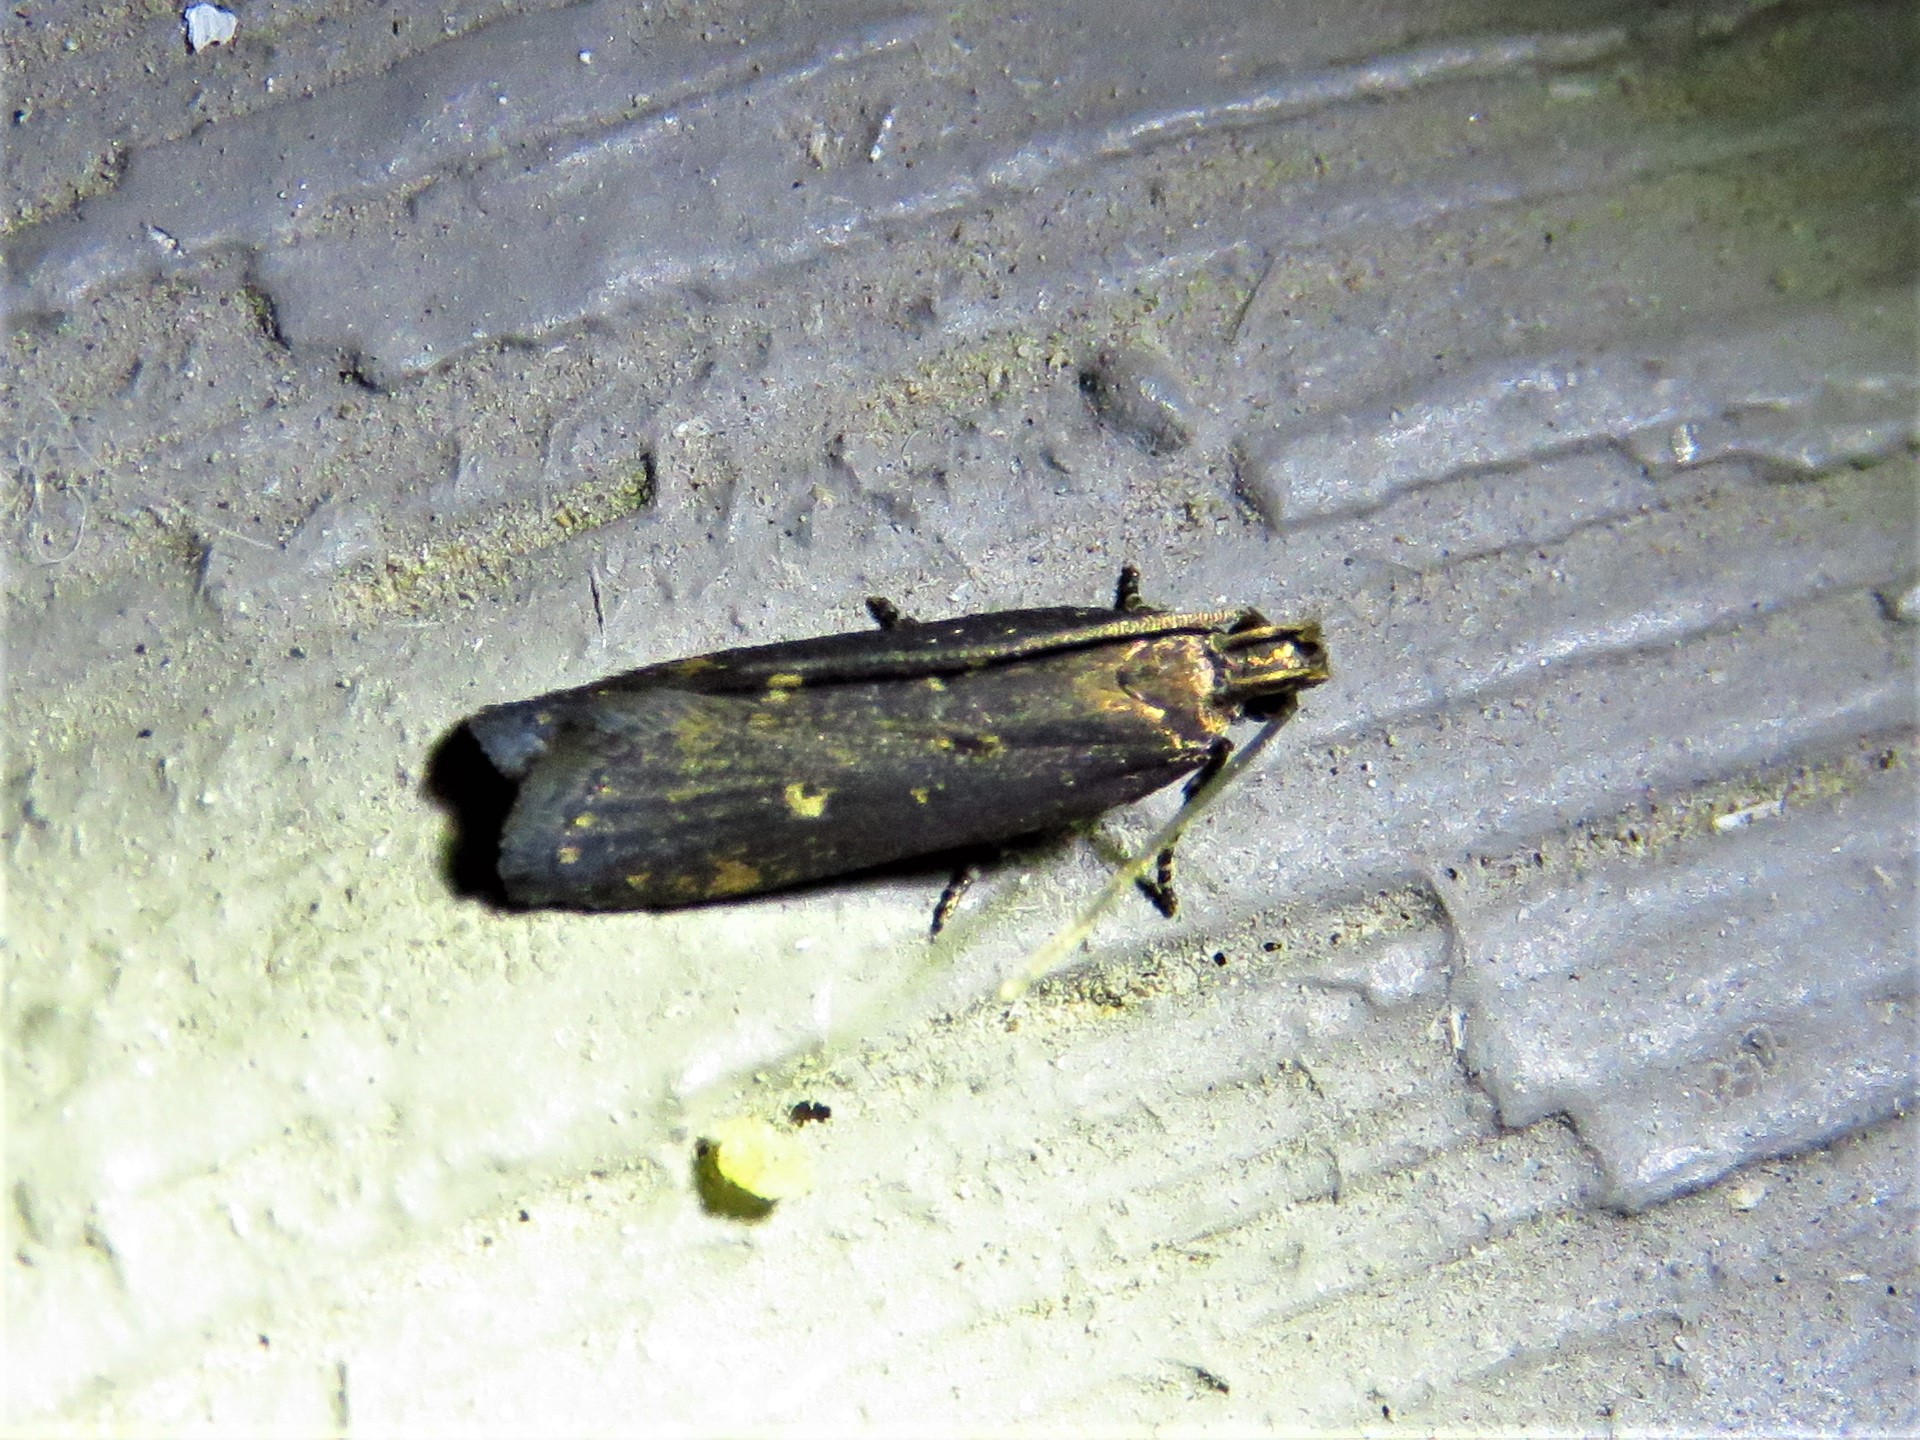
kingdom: Animalia
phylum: Arthropoda
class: Insecta
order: Lepidoptera
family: Gelechiidae
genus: Chionodes
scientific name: Chionodes discoocellella
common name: Eye-ringed chionodes moth
